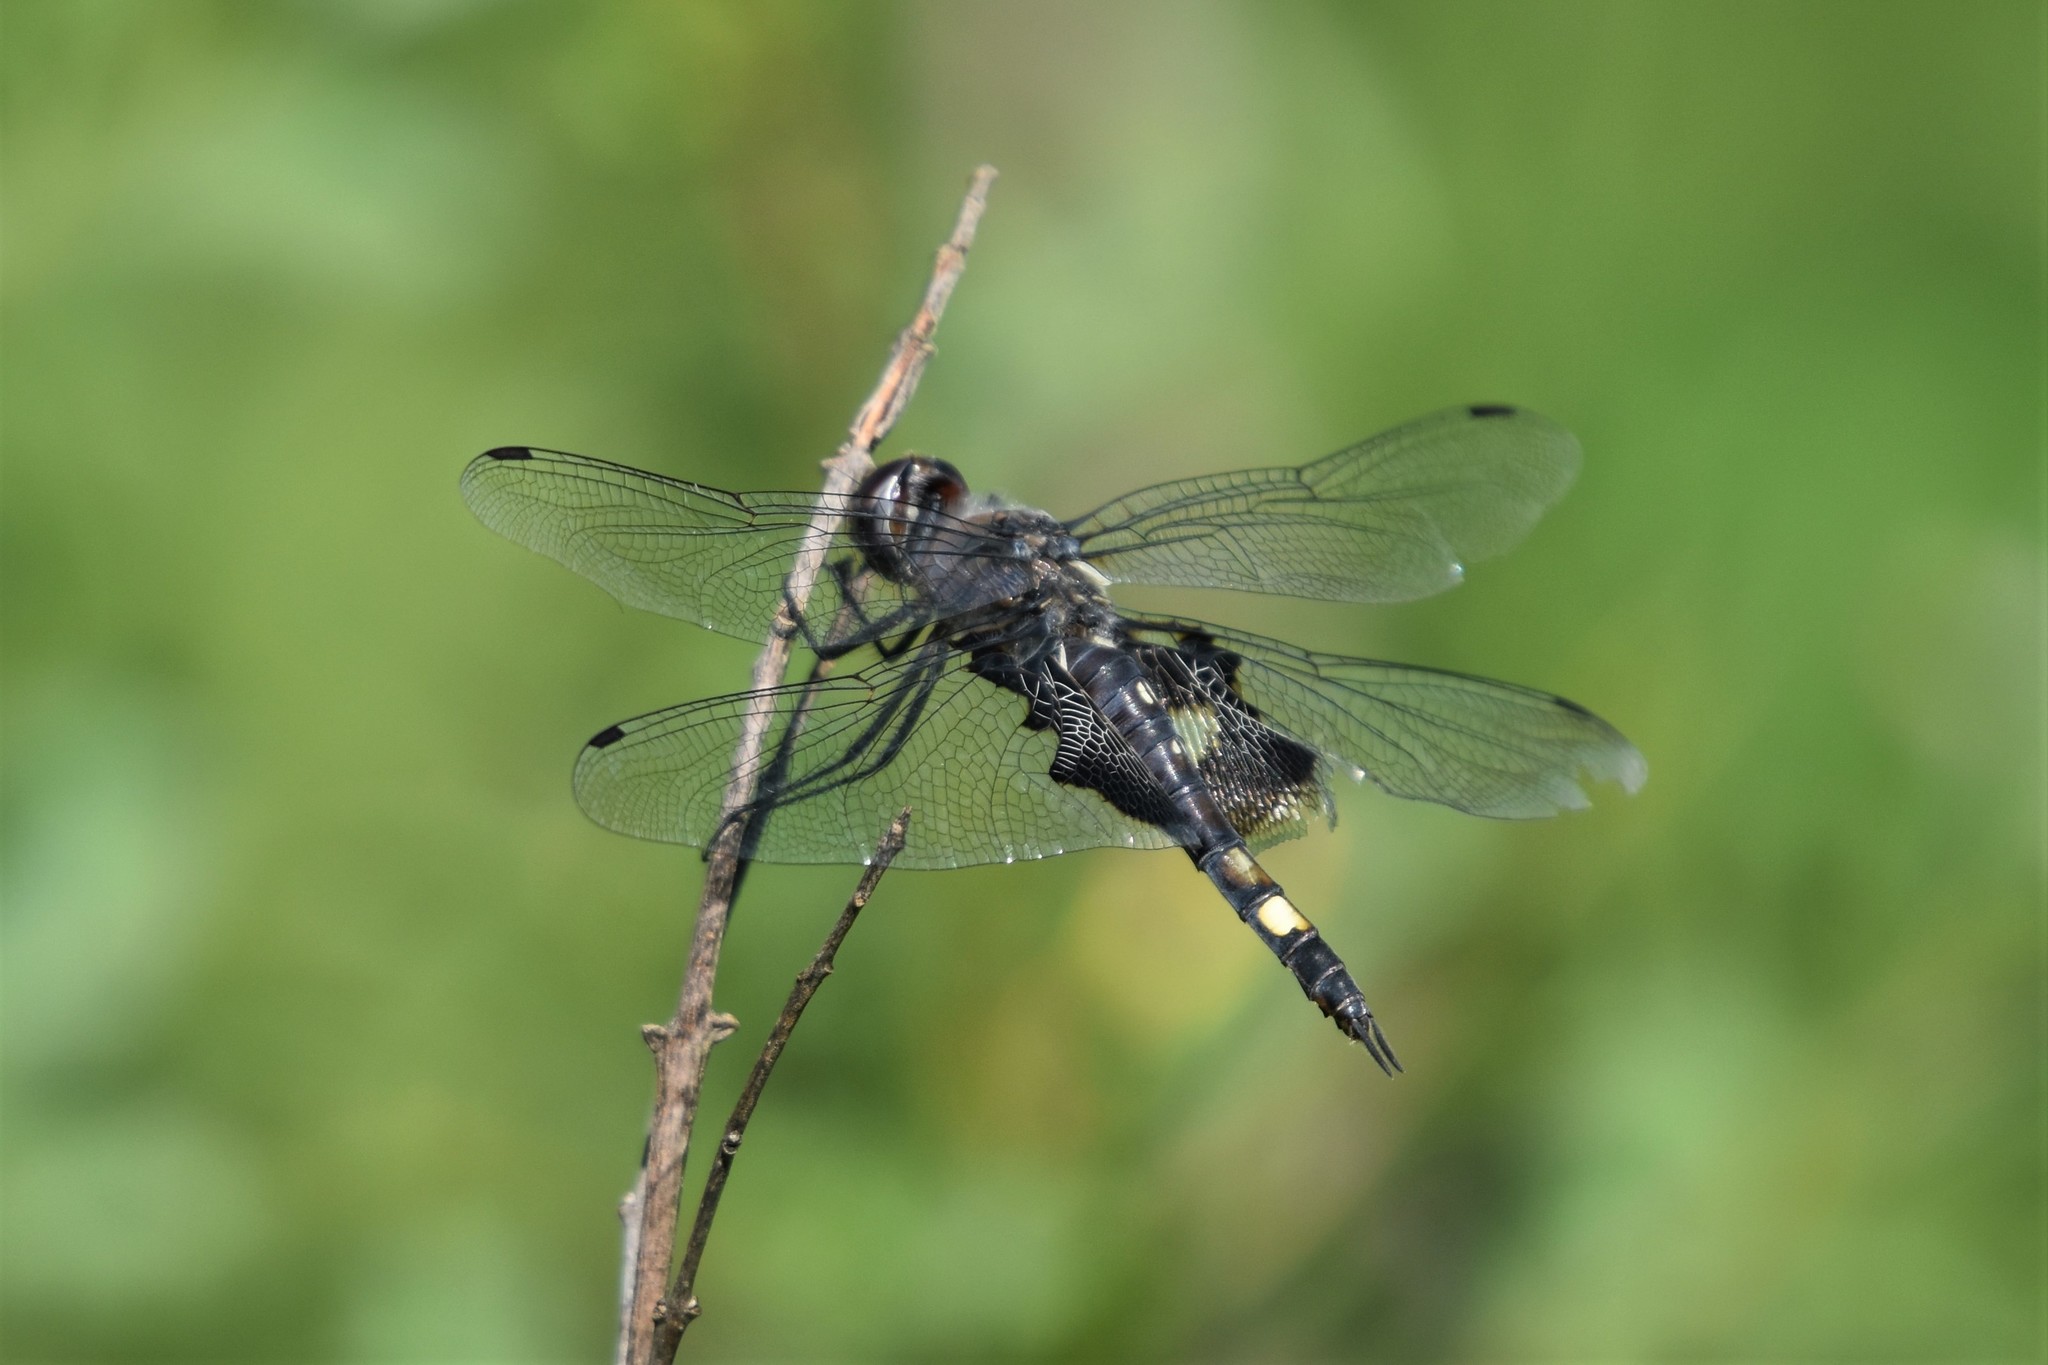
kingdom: Animalia
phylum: Arthropoda
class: Insecta
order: Odonata
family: Libellulidae
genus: Tramea
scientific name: Tramea lacerata
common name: Black saddlebags
